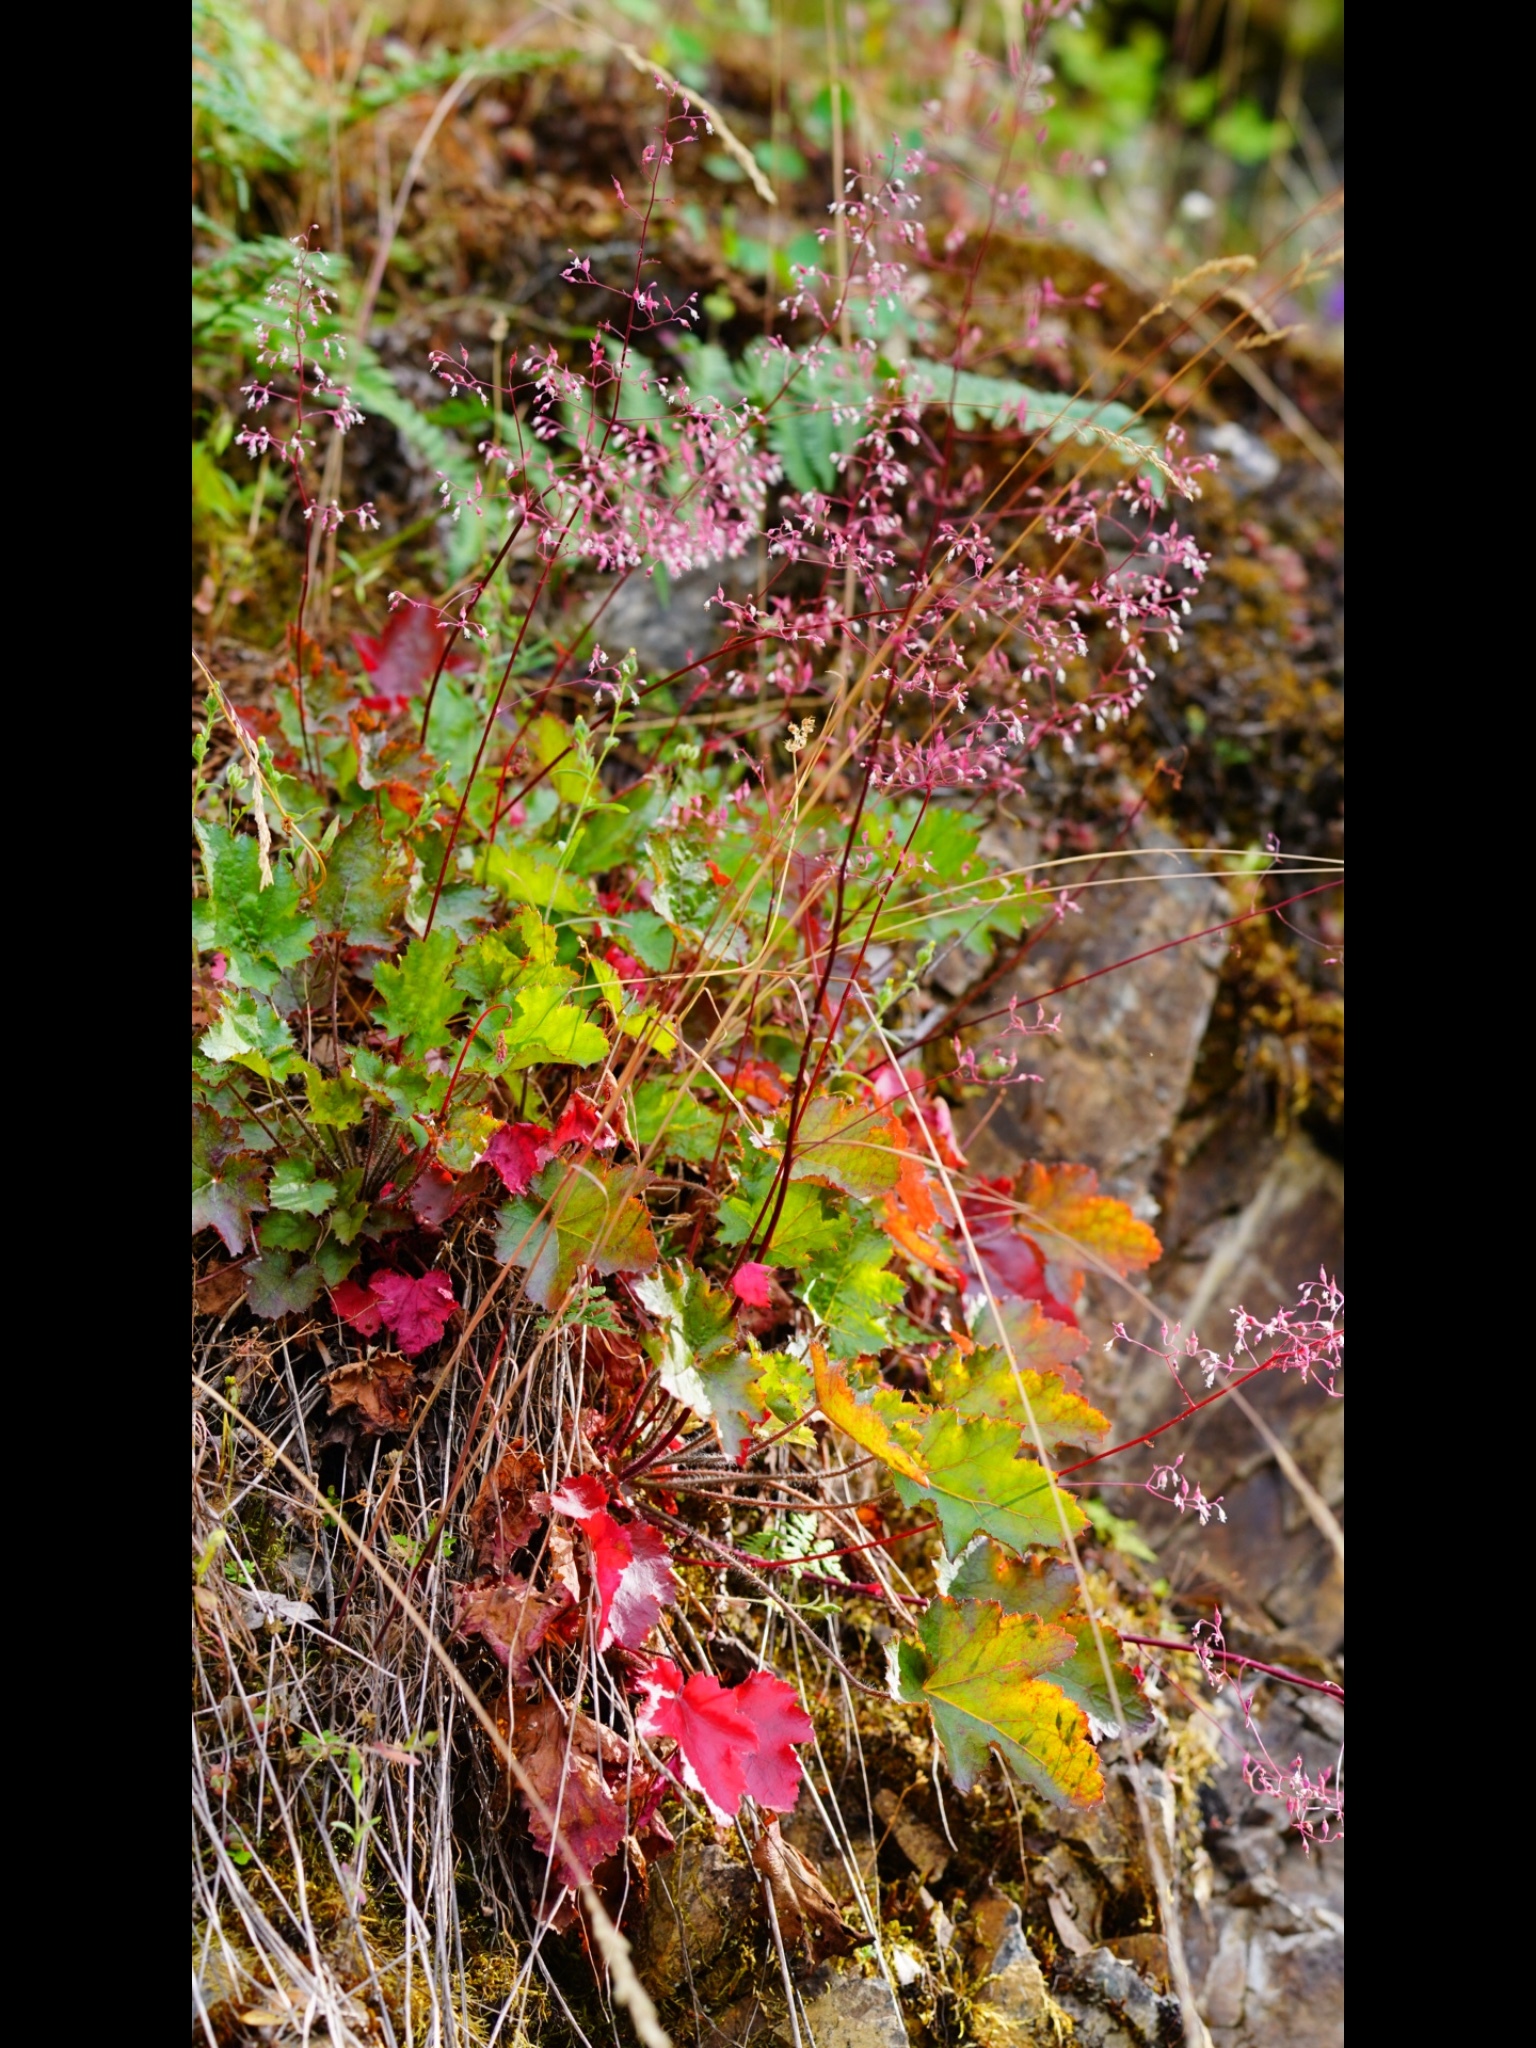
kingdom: Plantae
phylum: Tracheophyta
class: Magnoliopsida
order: Saxifragales
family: Saxifragaceae
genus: Heuchera
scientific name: Heuchera micrantha
